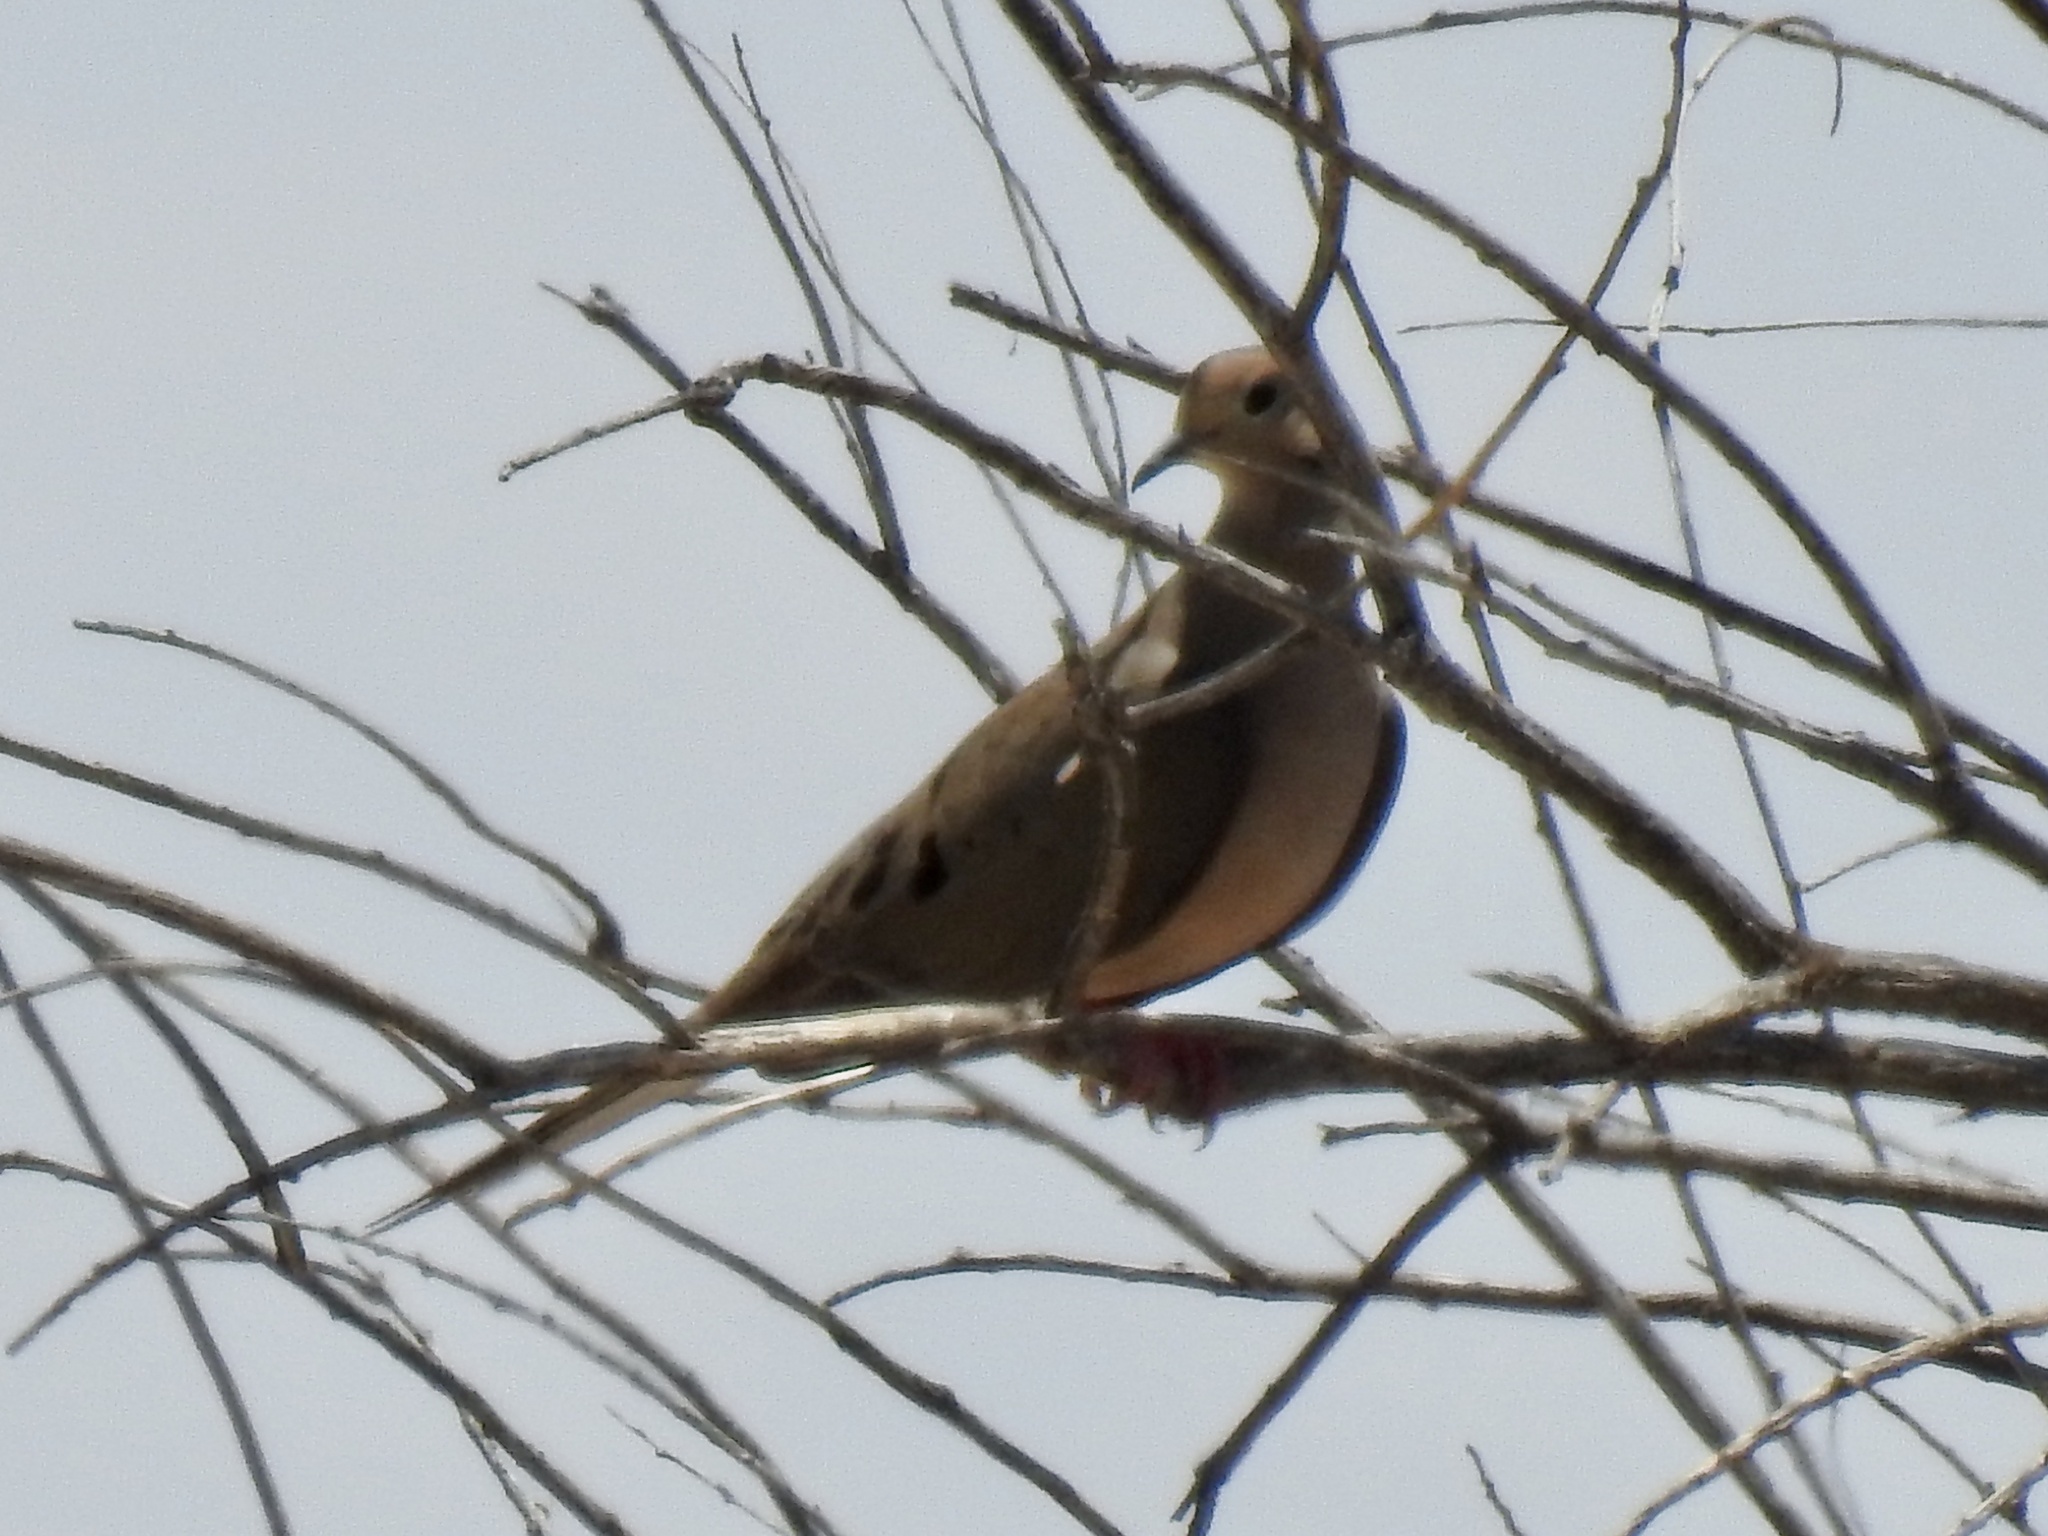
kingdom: Animalia
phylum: Chordata
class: Aves
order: Columbiformes
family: Columbidae
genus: Zenaida
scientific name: Zenaida macroura
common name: Mourning dove
